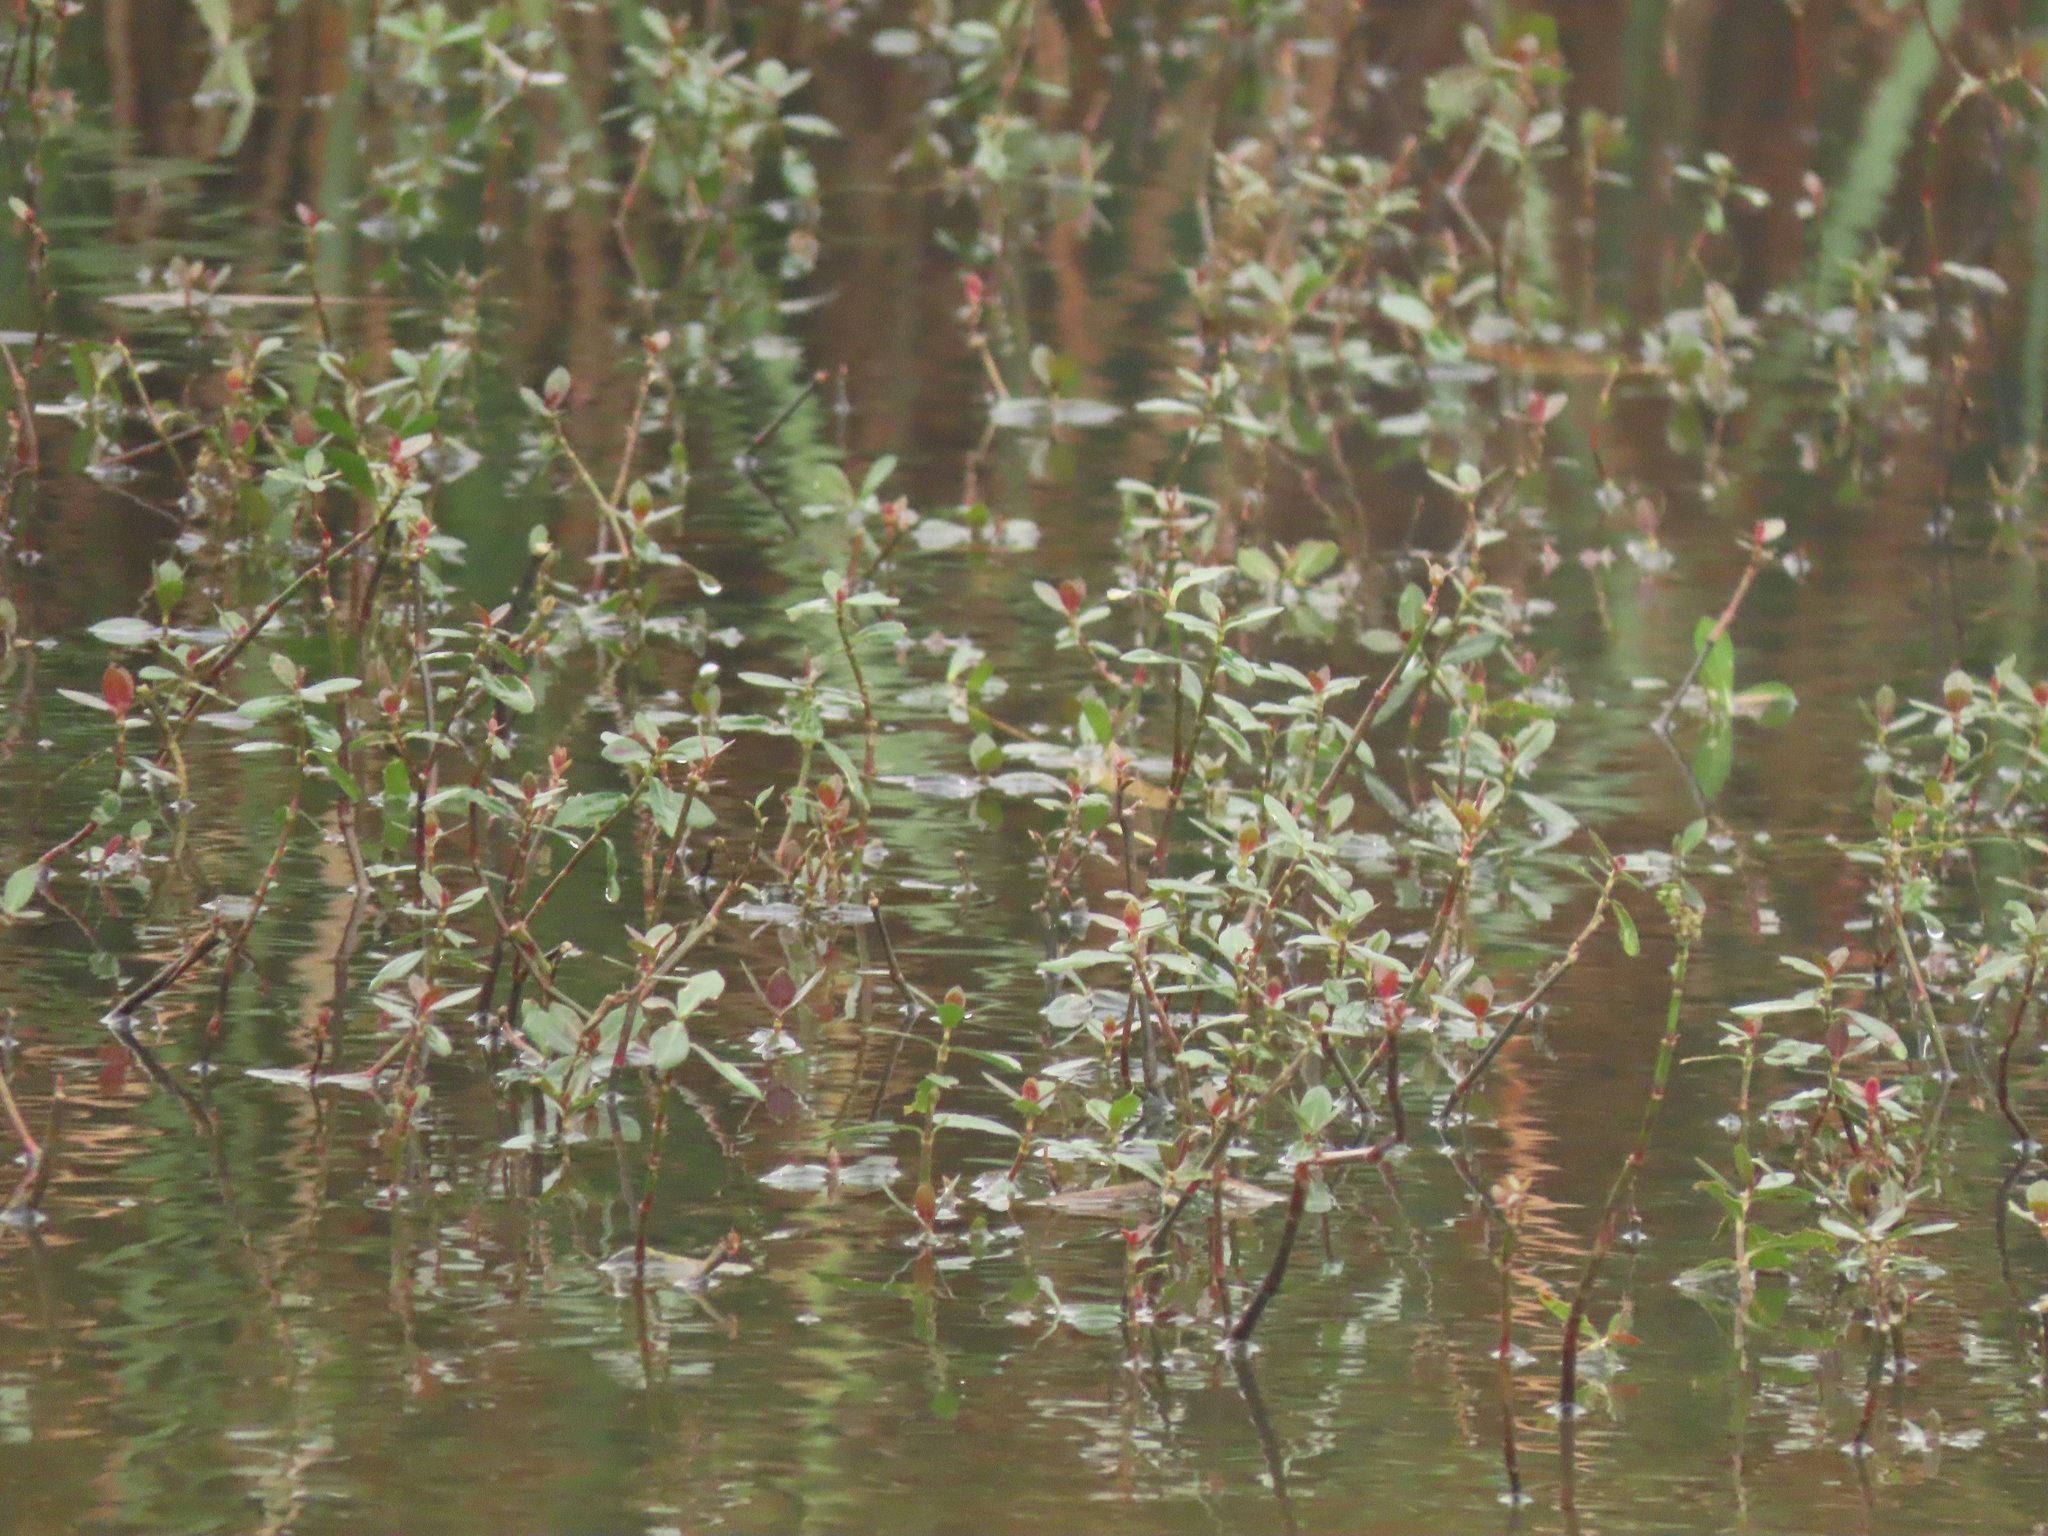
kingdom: Plantae
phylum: Tracheophyta
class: Magnoliopsida
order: Caryophyllales
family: Amaranthaceae
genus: Alternanthera
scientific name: Alternanthera philoxeroides
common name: Alligatorweed
